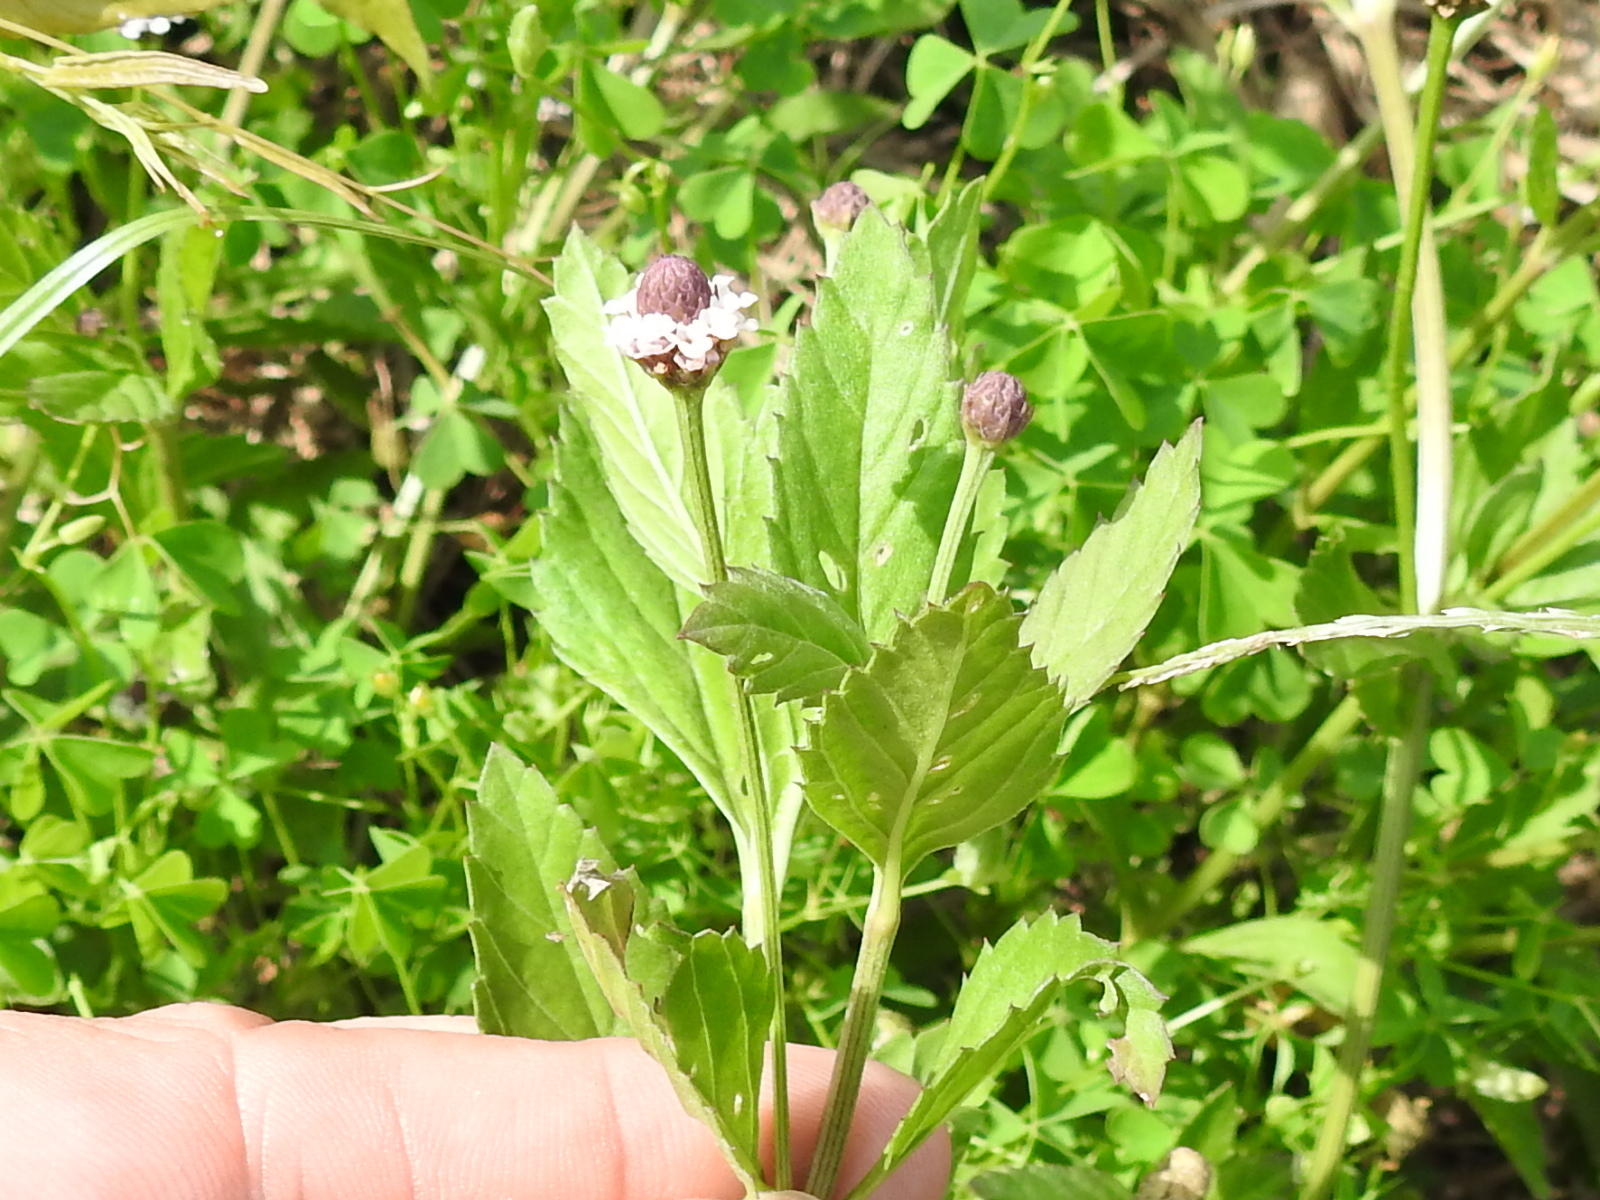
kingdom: Plantae
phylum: Tracheophyta
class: Magnoliopsida
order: Lamiales
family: Verbenaceae
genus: Phyla
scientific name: Phyla lanceolata
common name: Northern fogfruit
